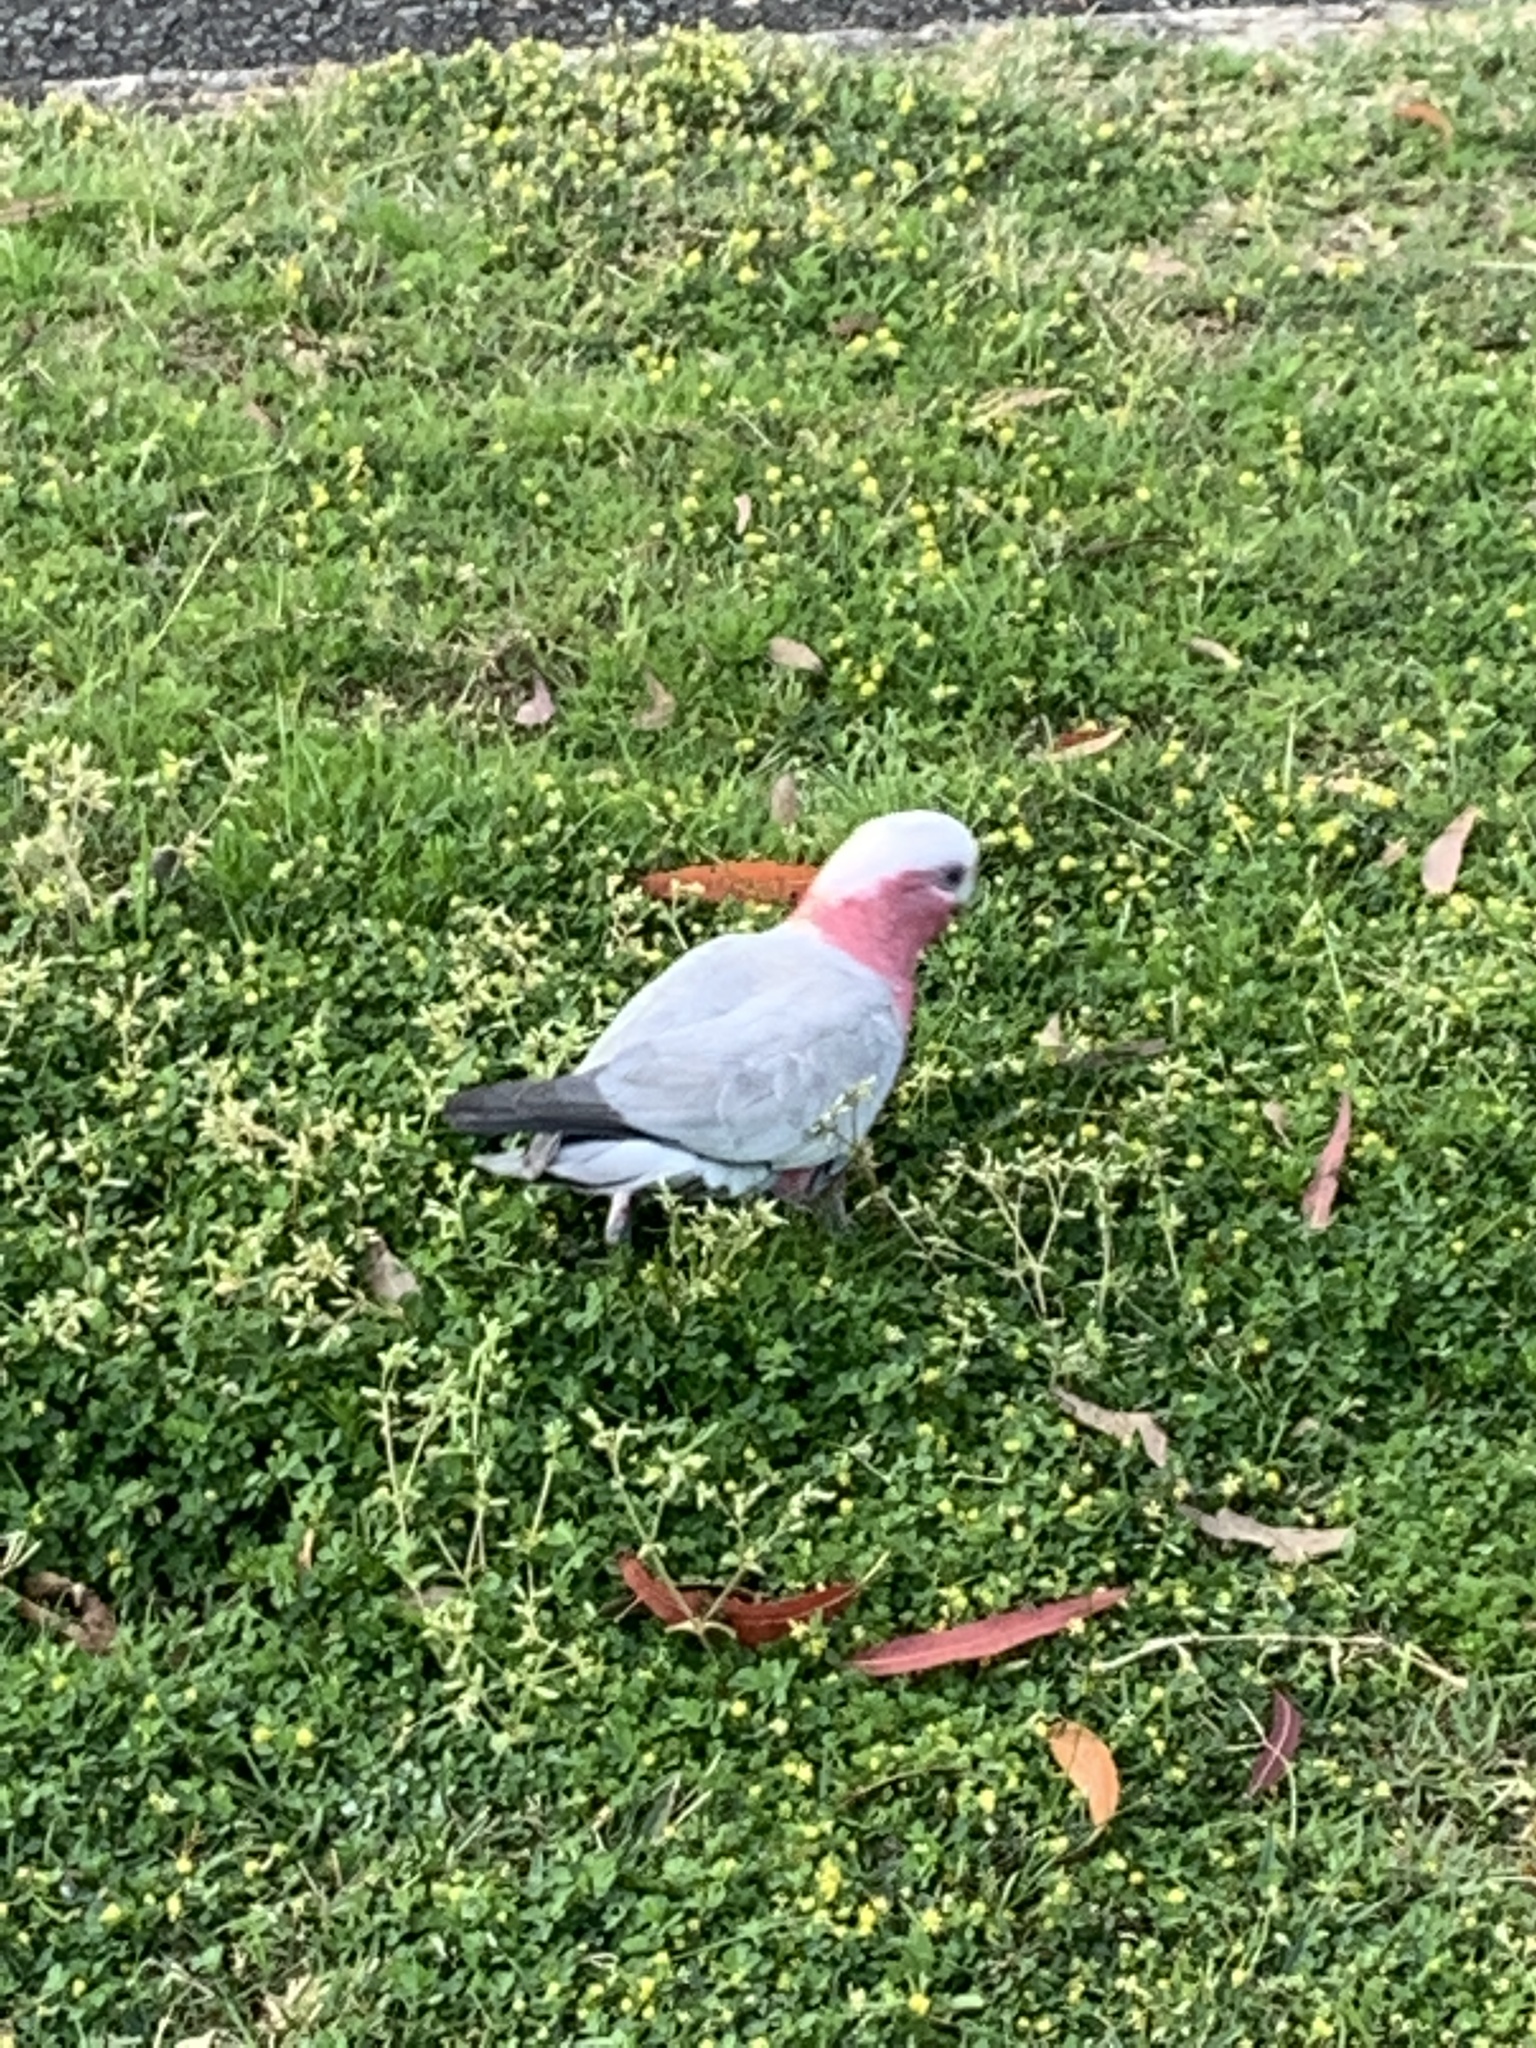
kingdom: Animalia
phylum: Chordata
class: Aves
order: Psittaciformes
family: Psittacidae
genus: Eolophus
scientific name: Eolophus roseicapilla
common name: Galah
